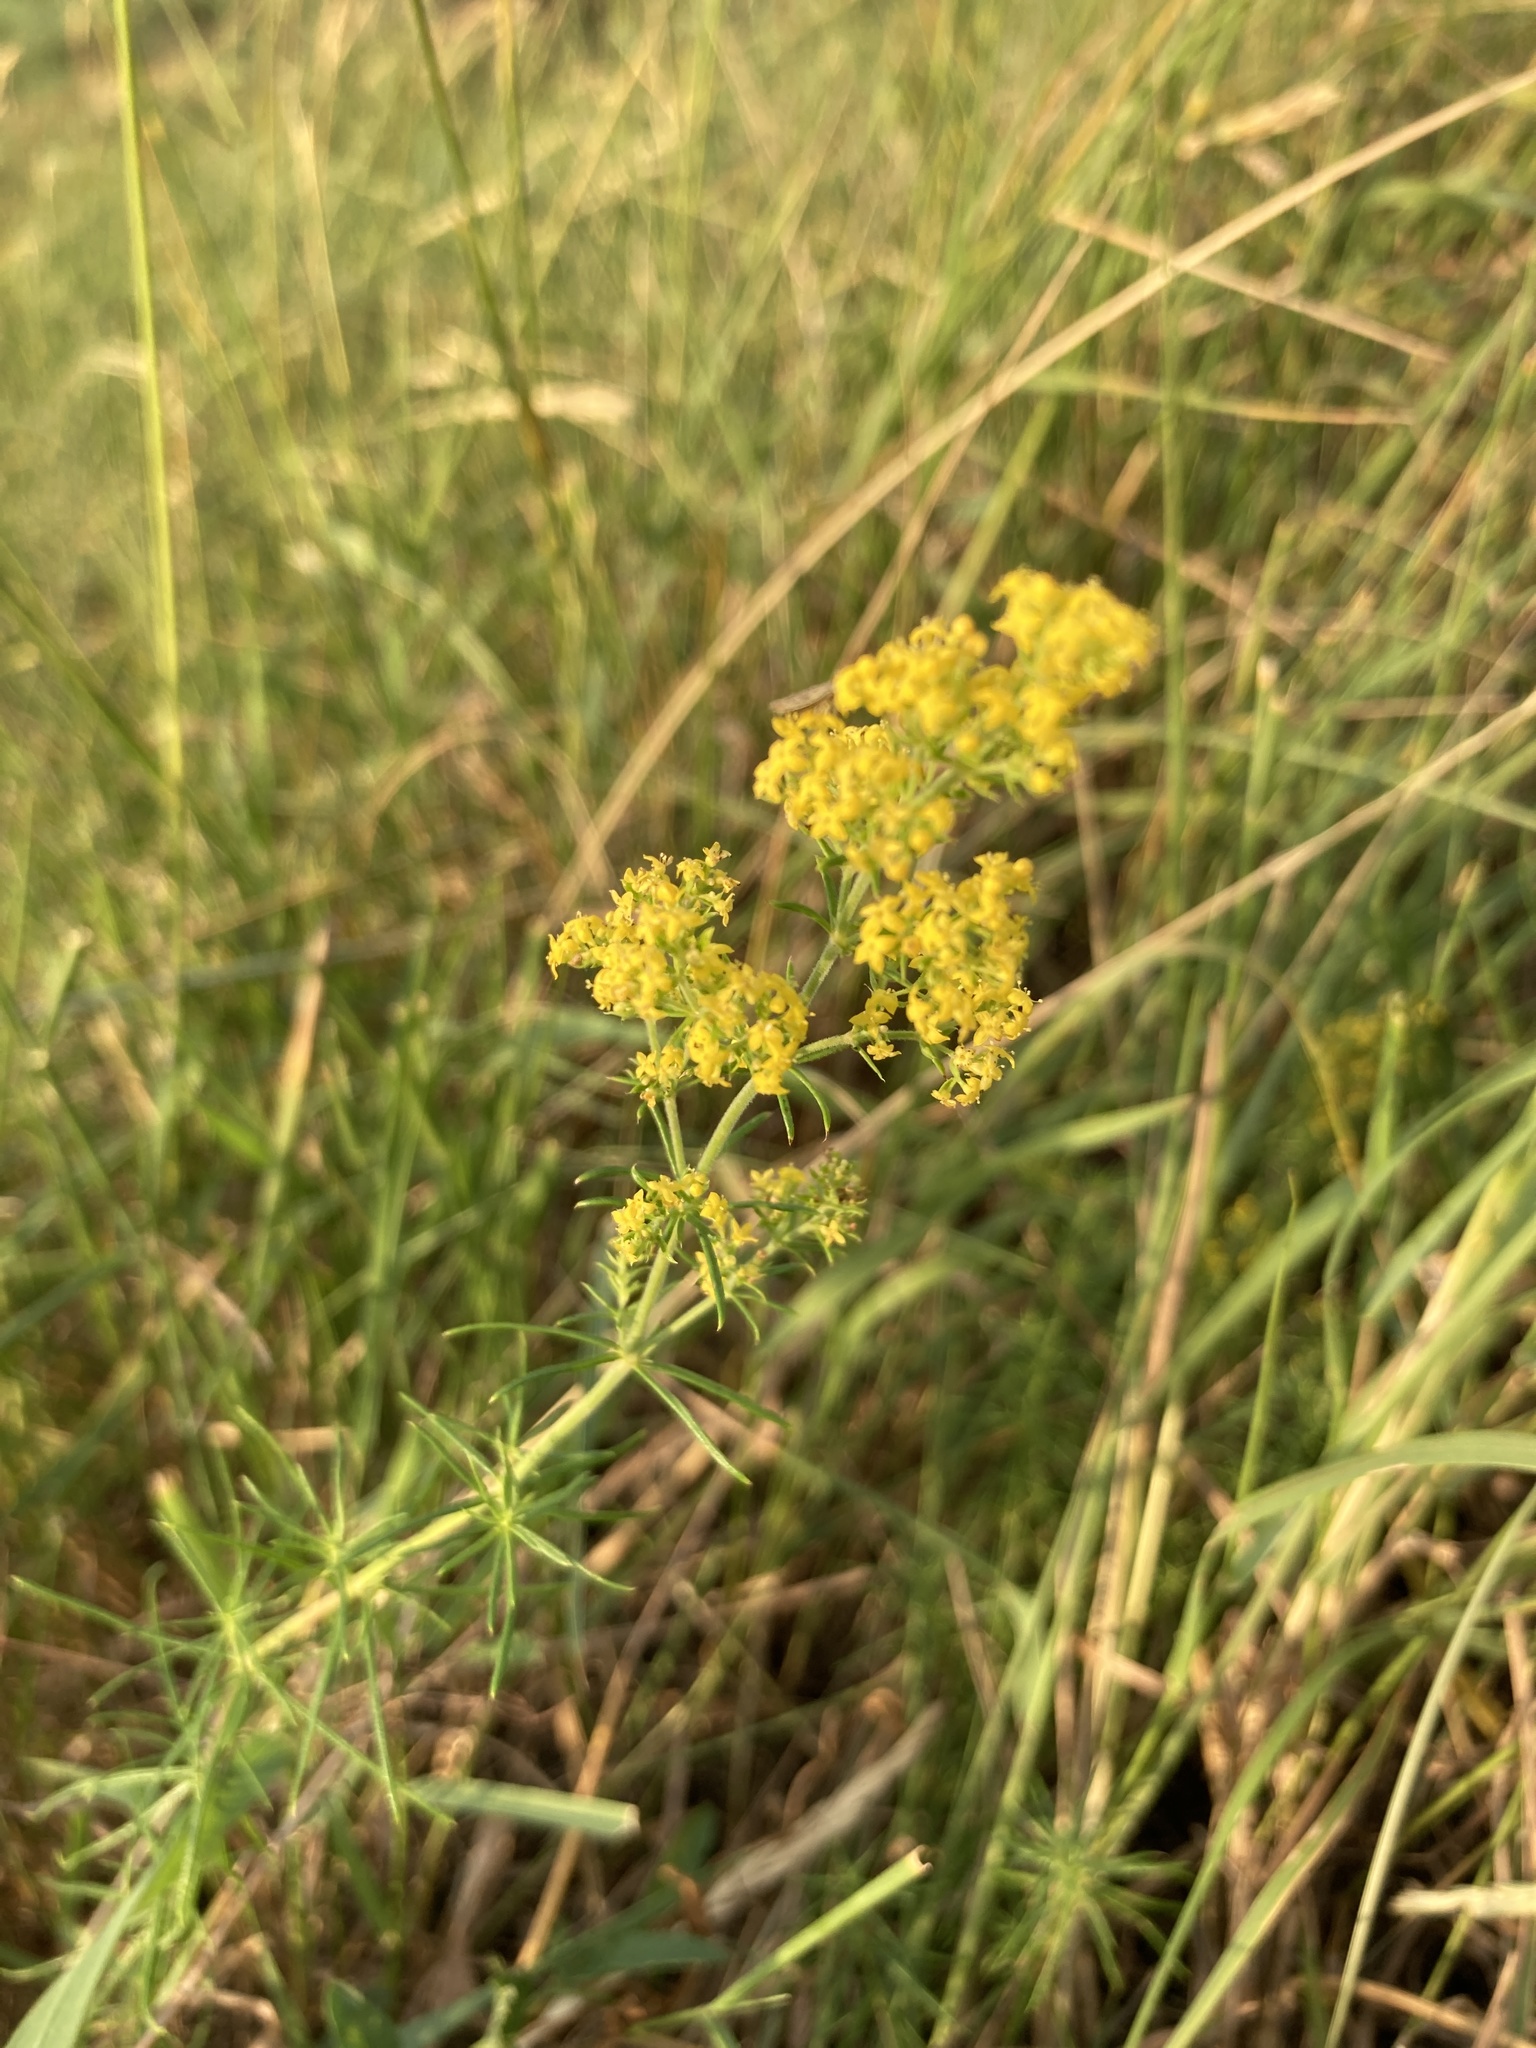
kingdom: Plantae
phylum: Tracheophyta
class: Magnoliopsida
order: Gentianales
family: Rubiaceae
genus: Galium
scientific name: Galium verum
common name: Lady's bedstraw
